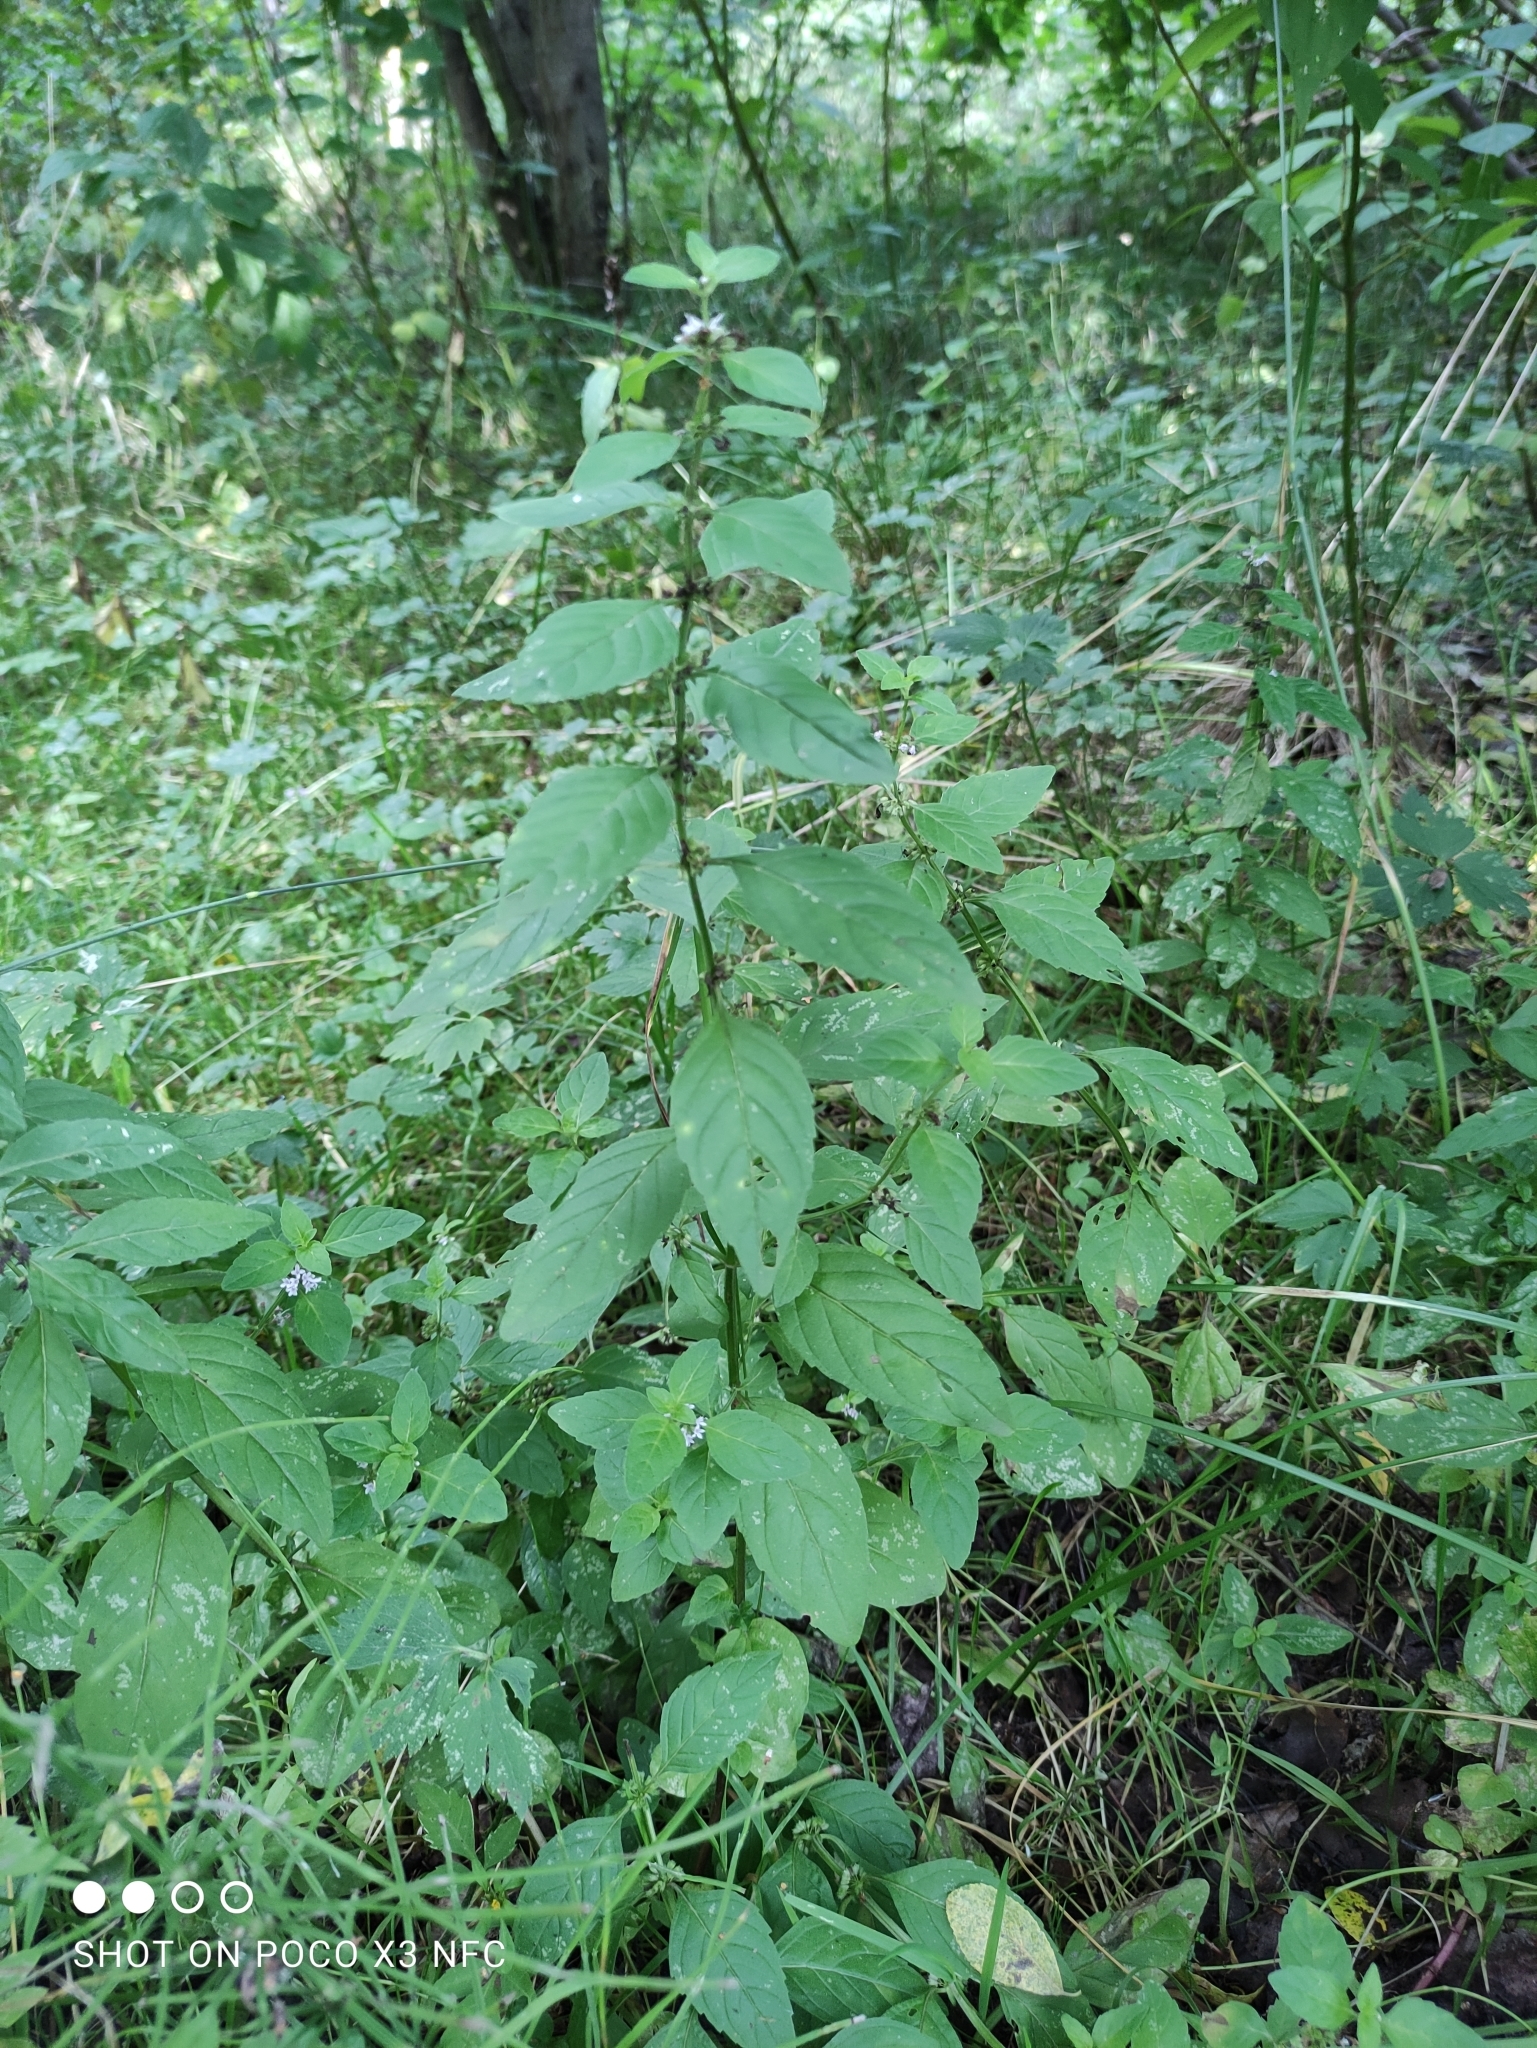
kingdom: Plantae
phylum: Tracheophyta
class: Magnoliopsida
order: Lamiales
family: Lamiaceae
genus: Mentha
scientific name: Mentha arvensis
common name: Corn mint
